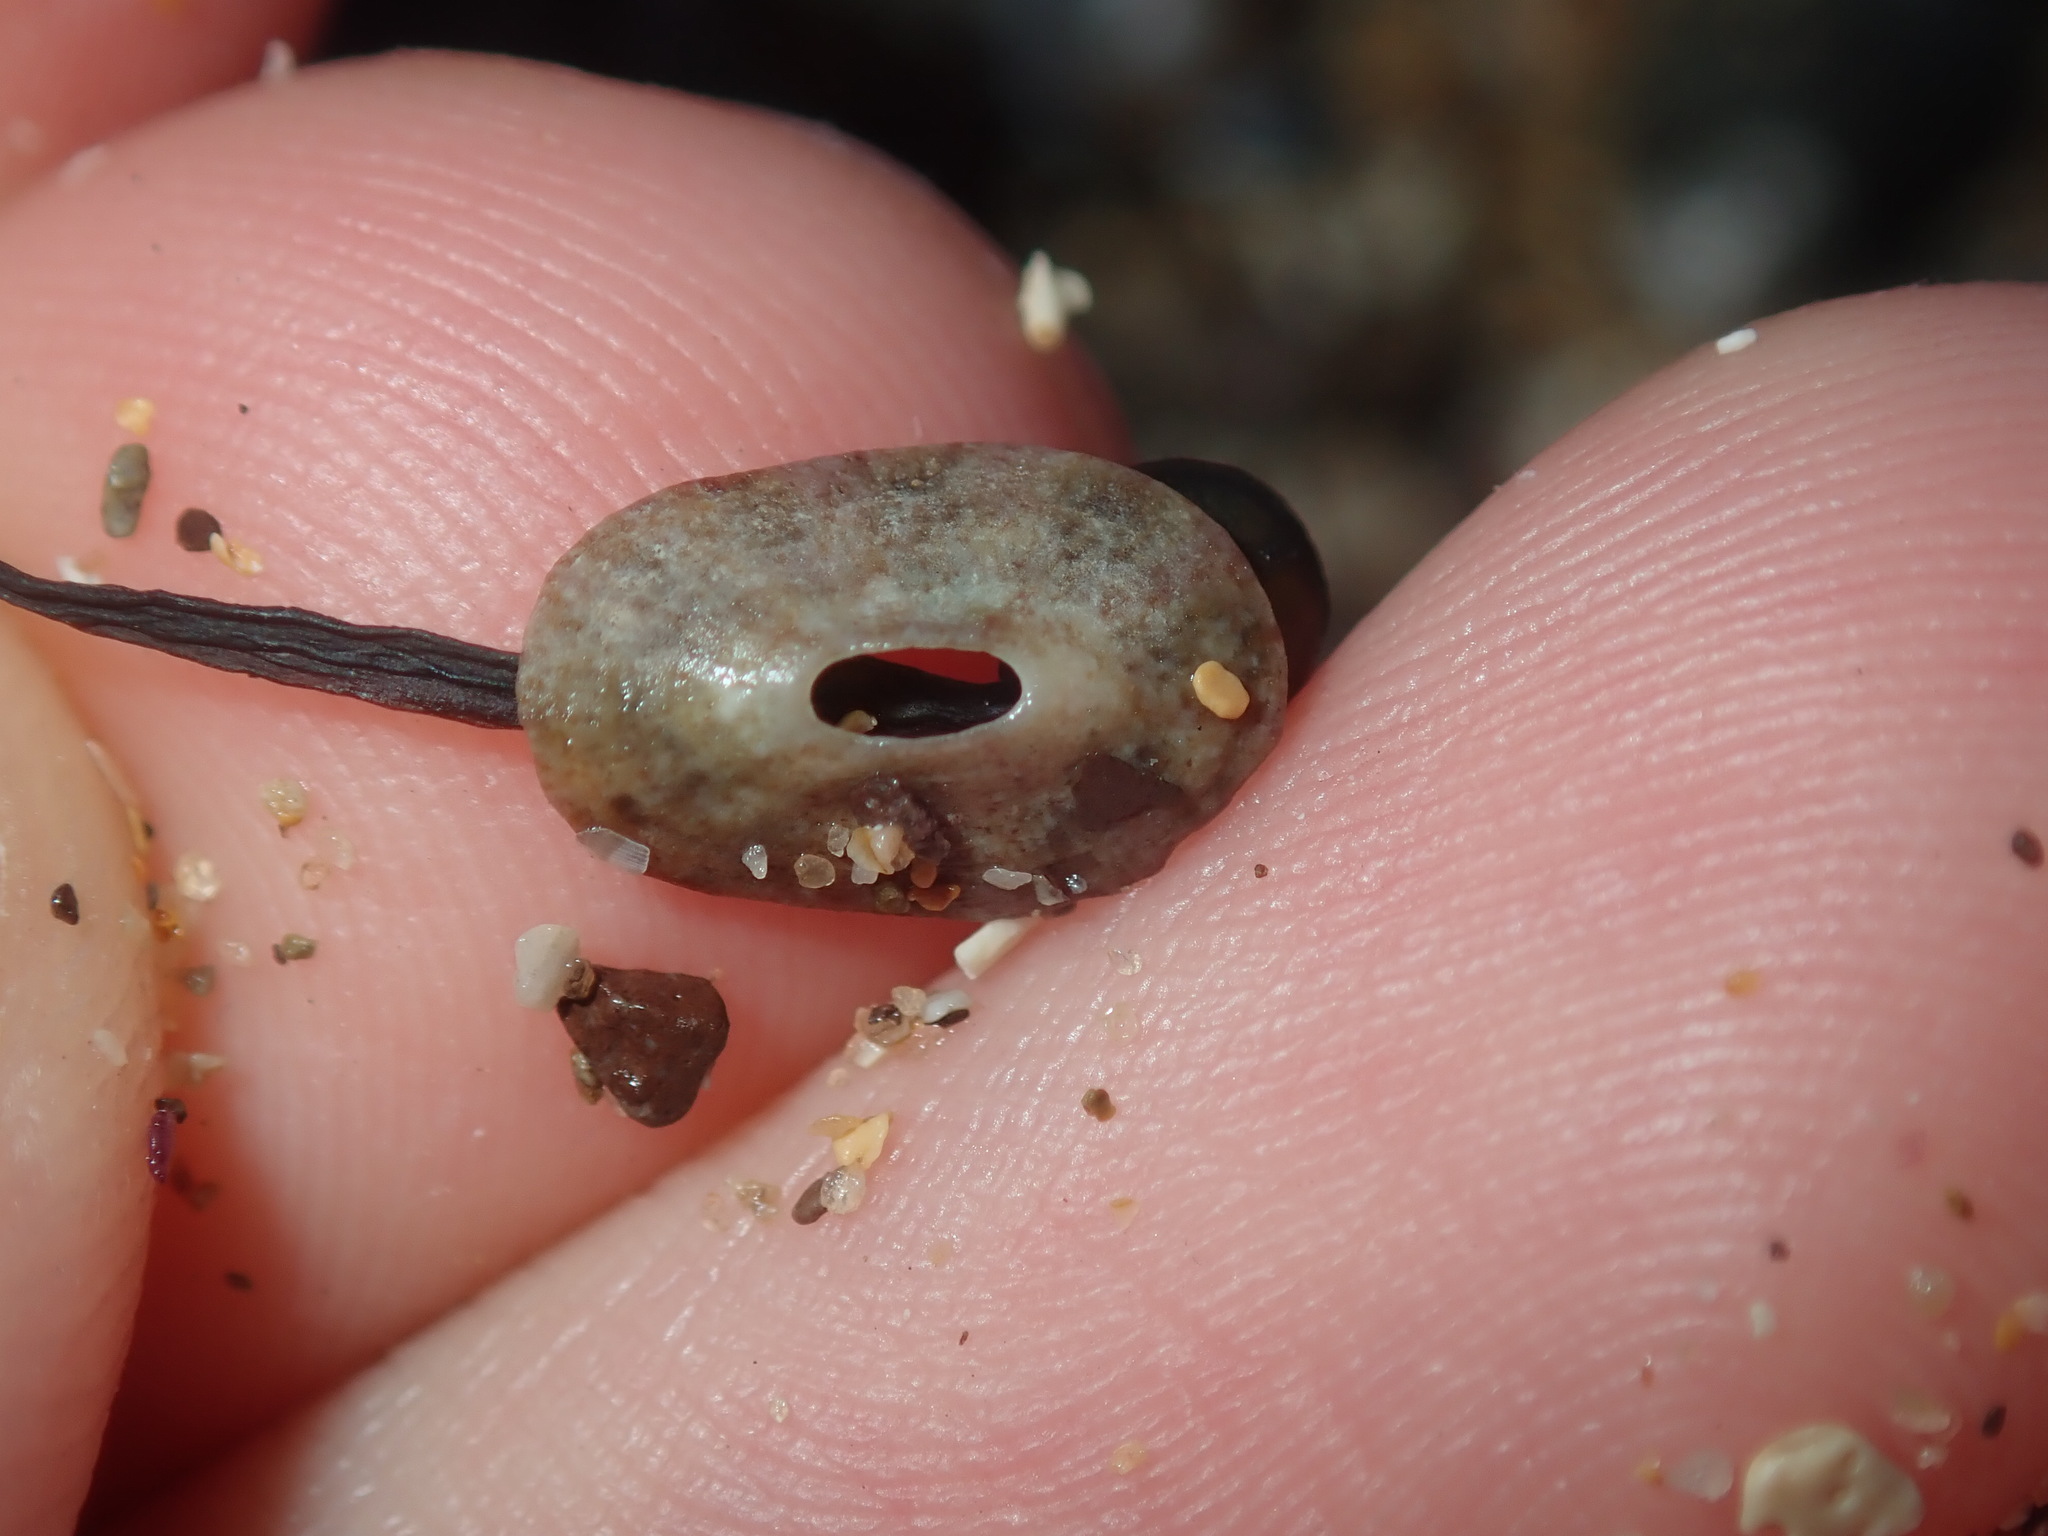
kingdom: Animalia
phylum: Mollusca
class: Gastropoda
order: Lepetellida
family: Fissurellidae
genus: Amblychilepas
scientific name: Amblychilepas nigrita
